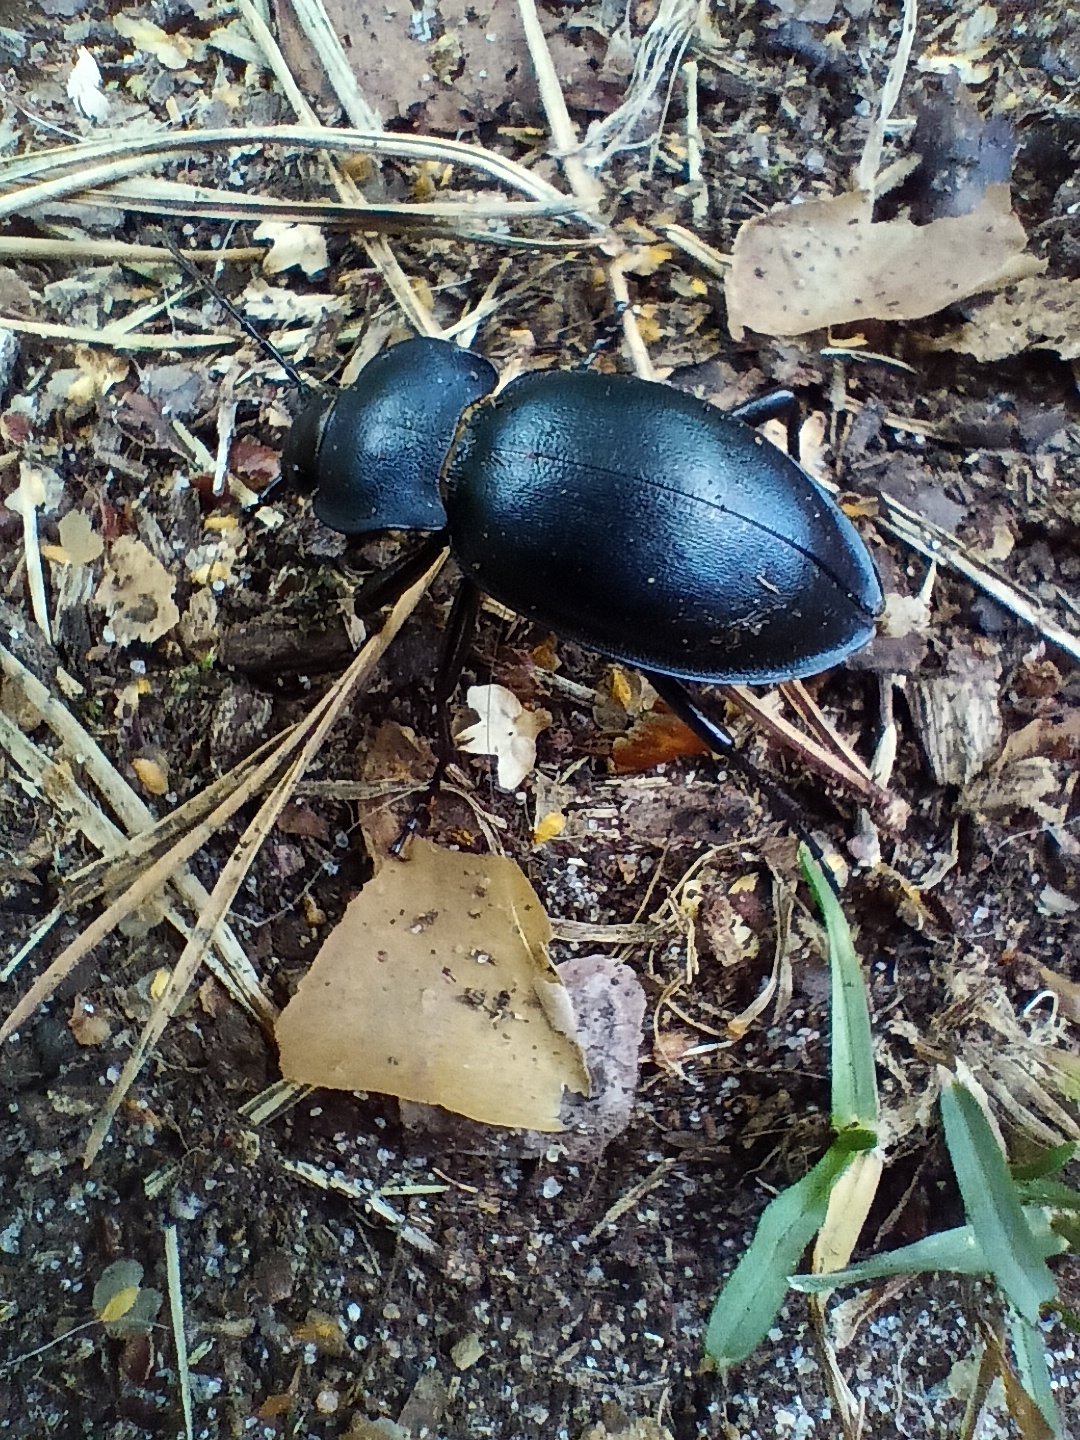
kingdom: Animalia
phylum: Arthropoda
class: Insecta
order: Coleoptera
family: Carabidae
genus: Carabus
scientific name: Carabus glabratus
